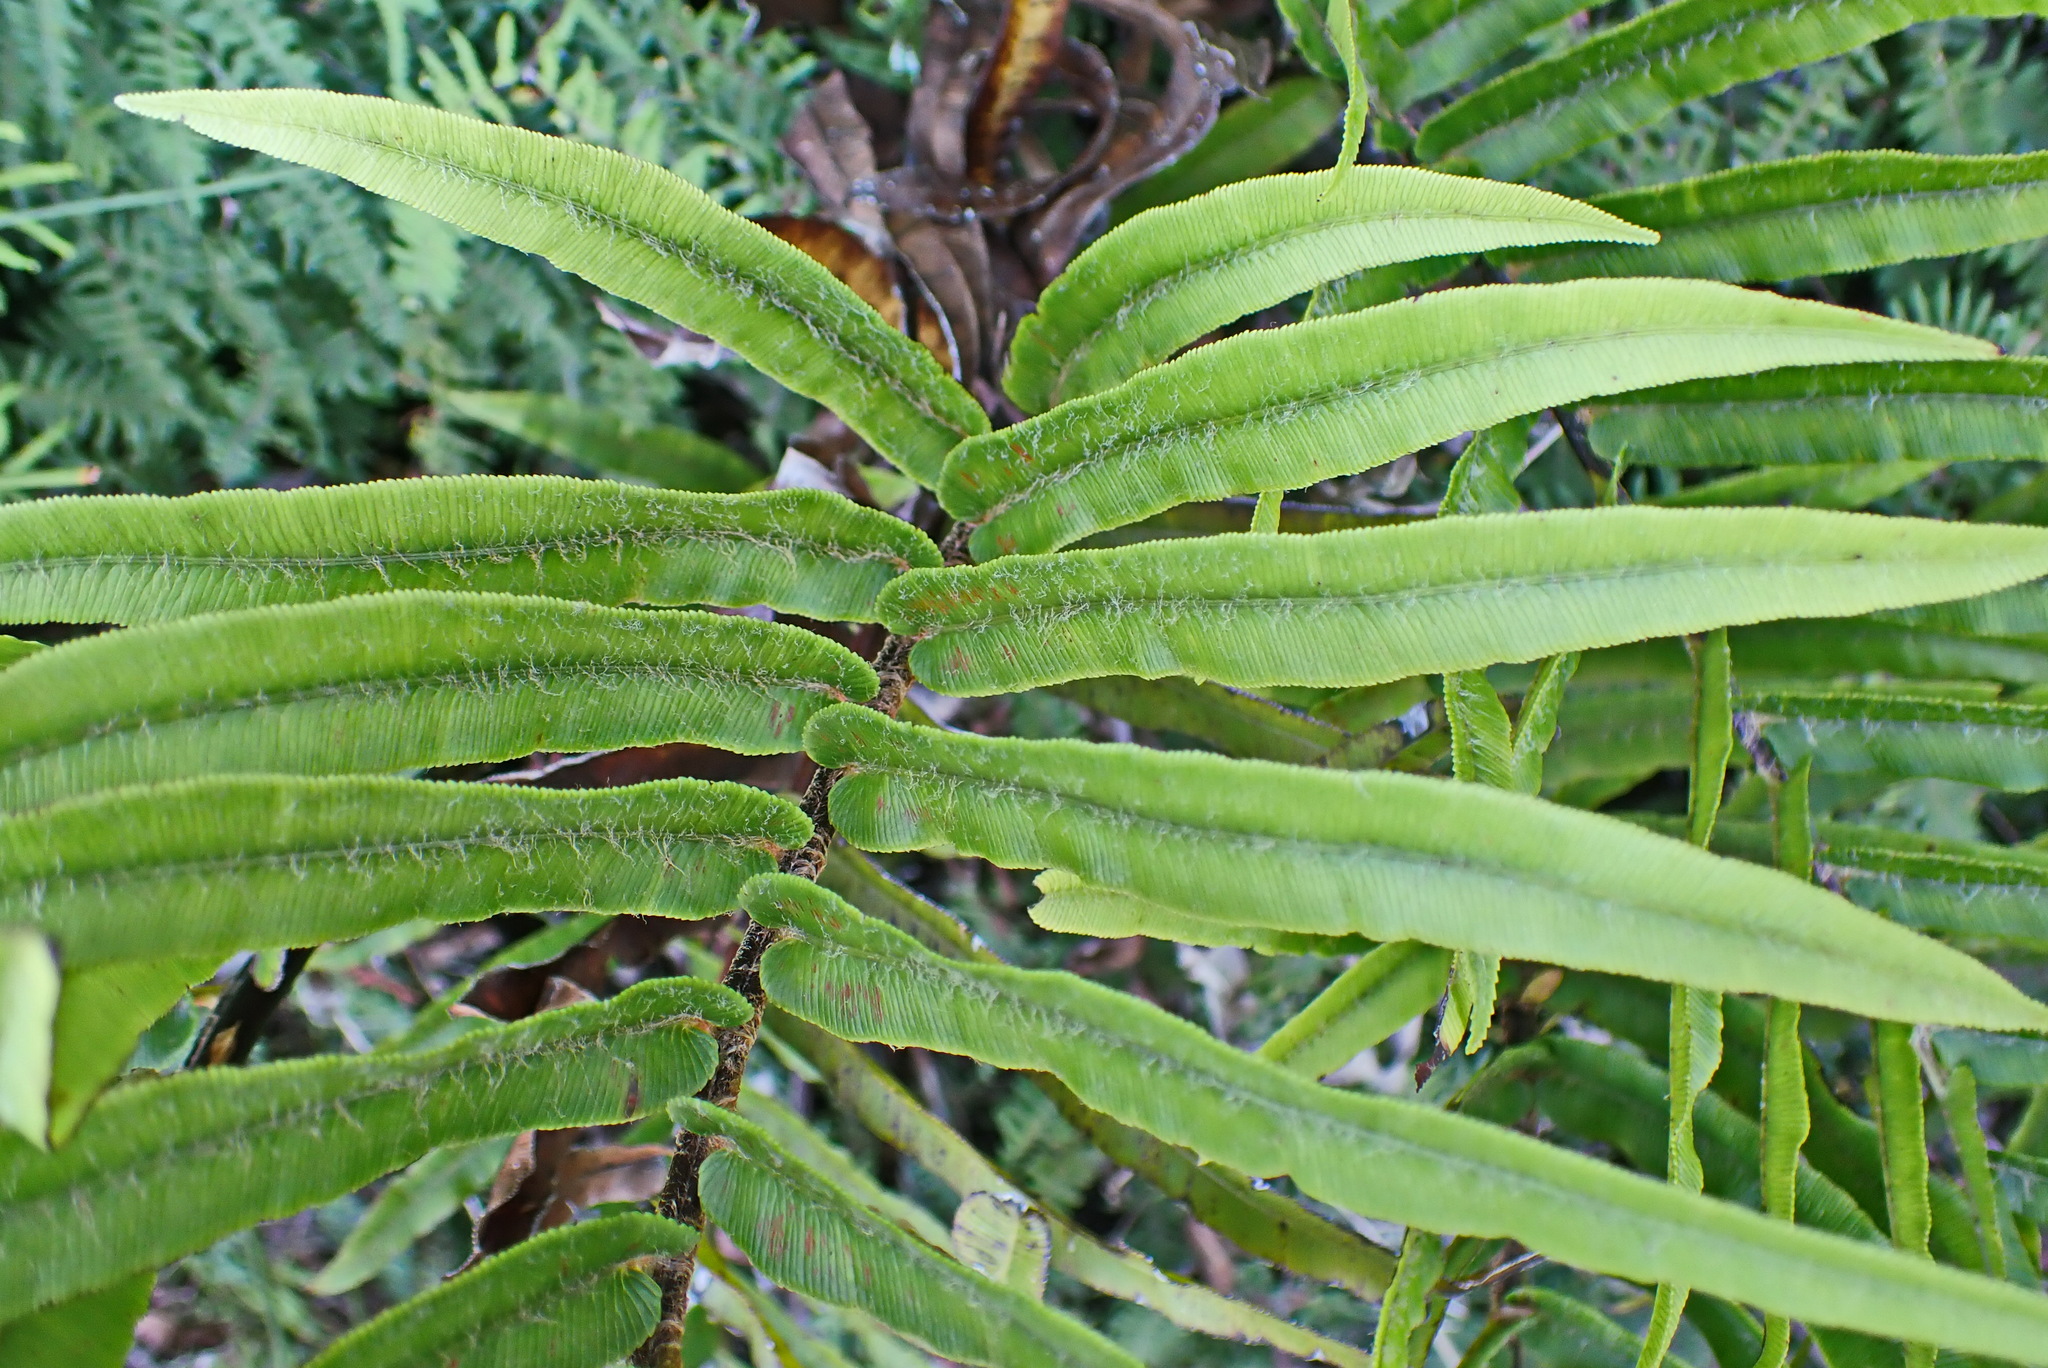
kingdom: Plantae
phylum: Tracheophyta
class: Polypodiopsida
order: Polypodiales
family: Blechnaceae
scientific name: Blechnaceae
